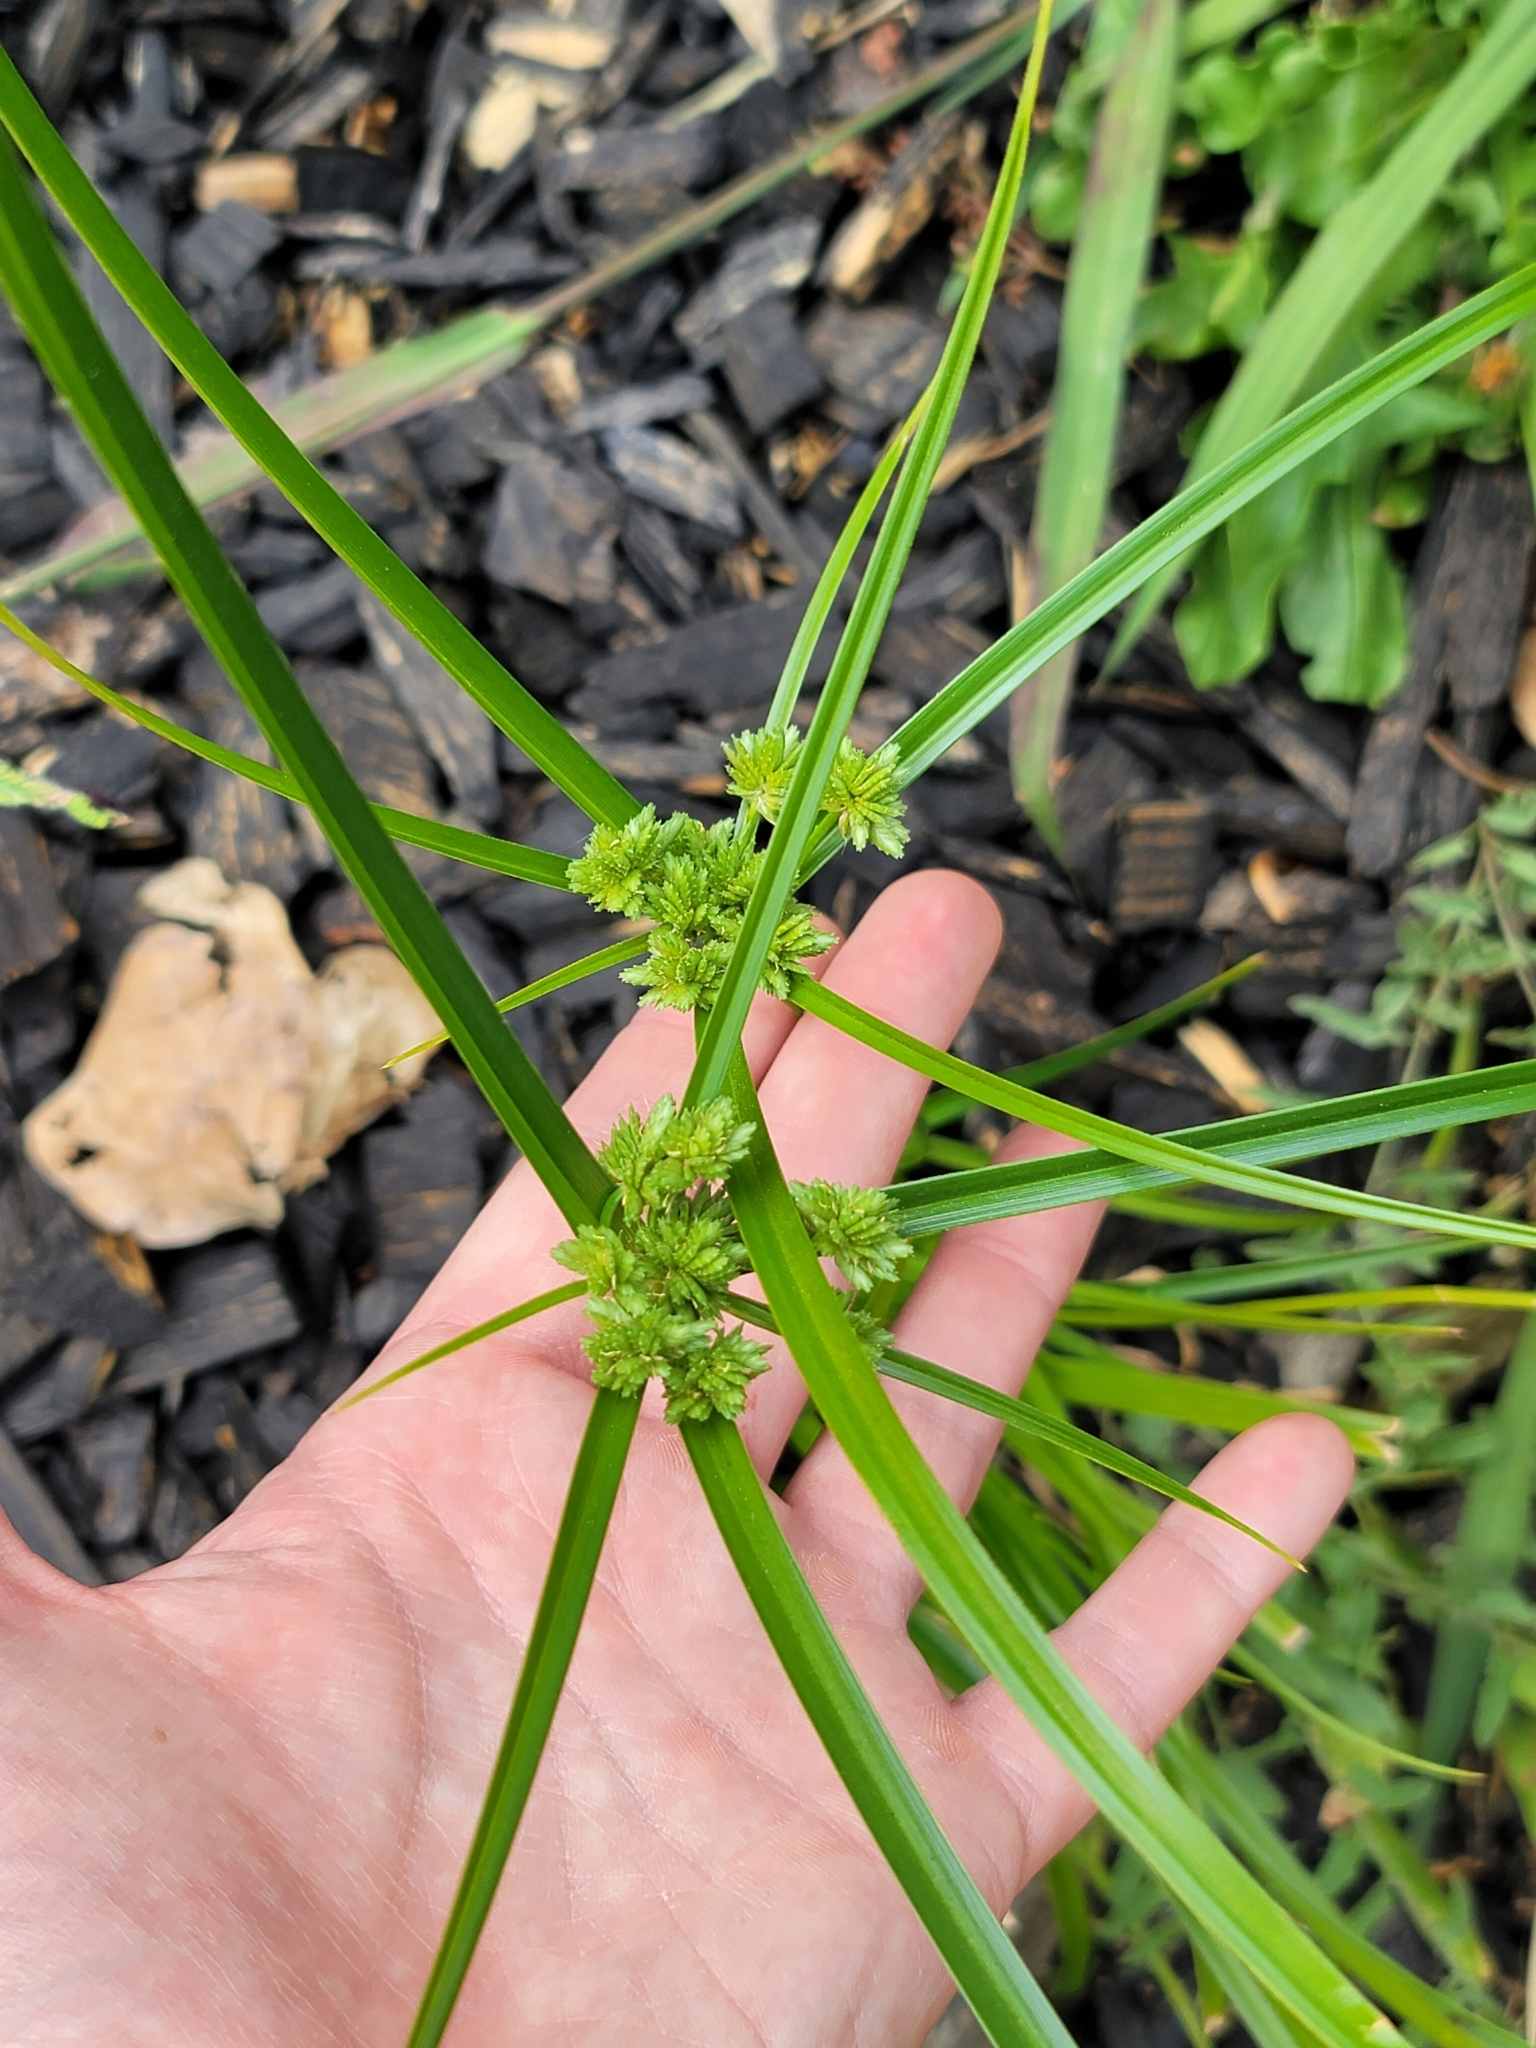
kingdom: Plantae
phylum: Tracheophyta
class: Liliopsida
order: Poales
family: Cyperaceae
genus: Cyperus
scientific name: Cyperus eragrostis
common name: Tall flatsedge
